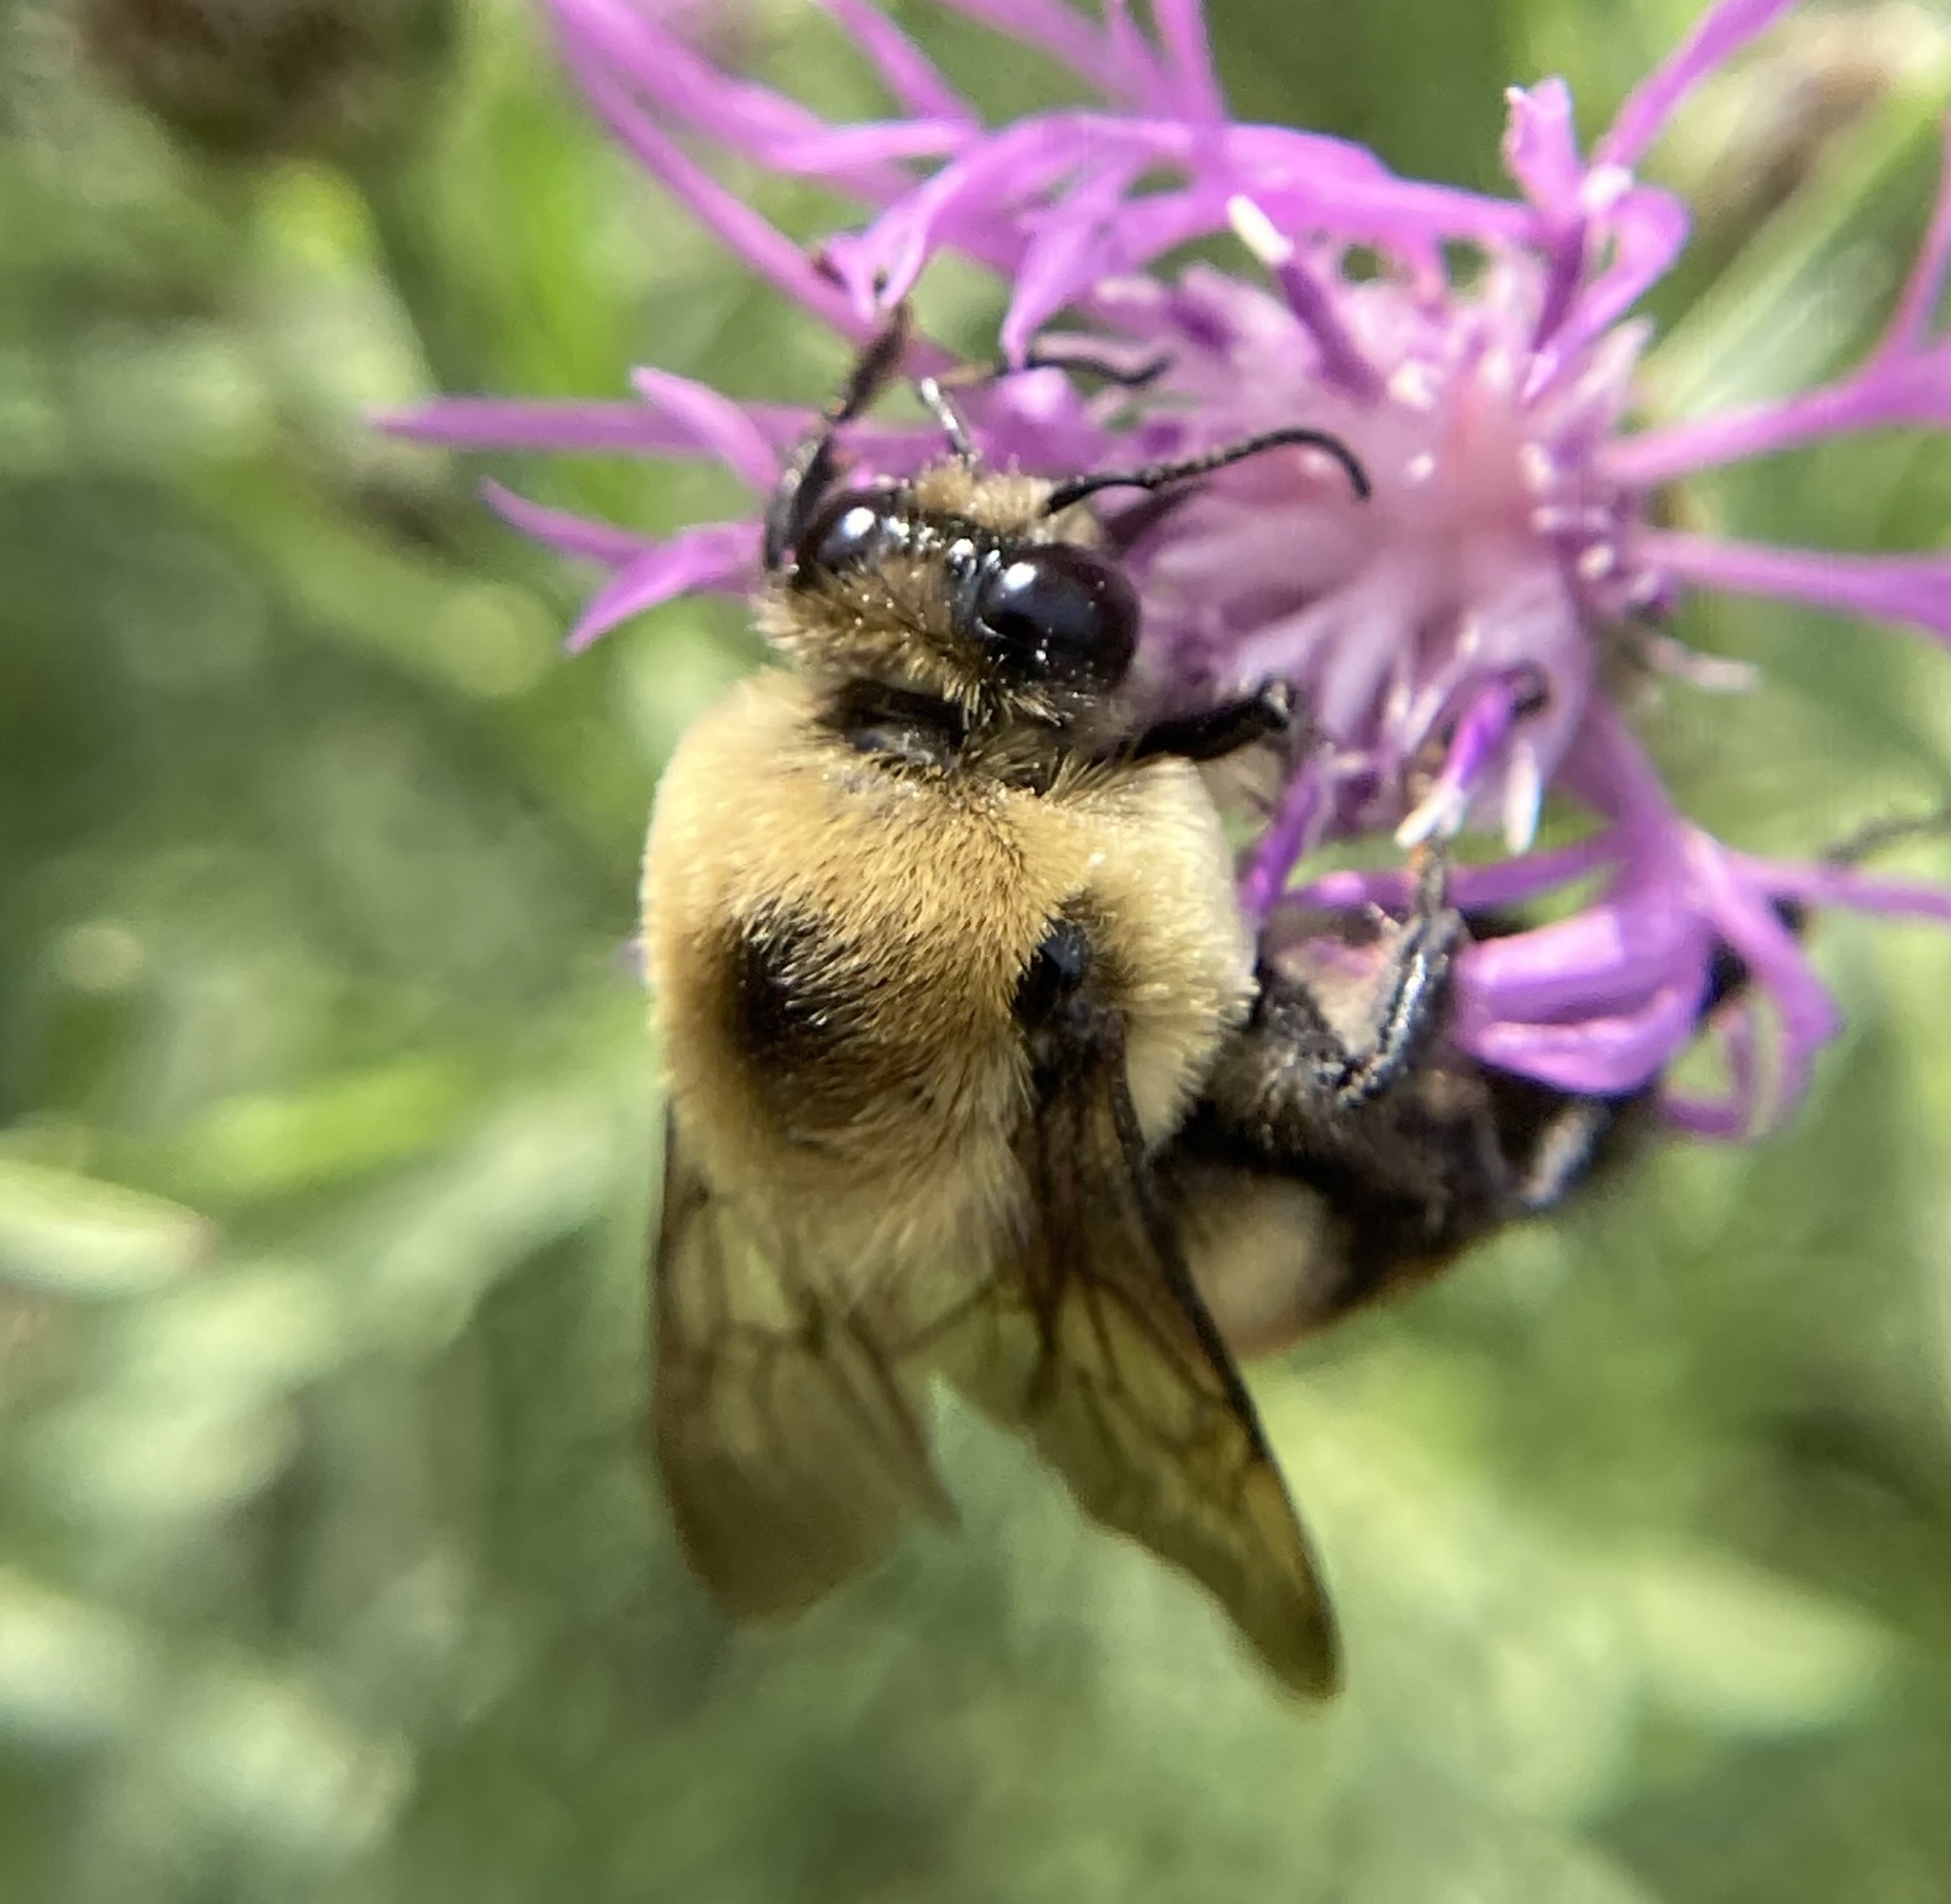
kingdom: Animalia
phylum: Arthropoda
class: Insecta
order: Hymenoptera
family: Apidae
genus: Bombus
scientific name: Bombus griseocollis
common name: Brown-belted bumble bee
